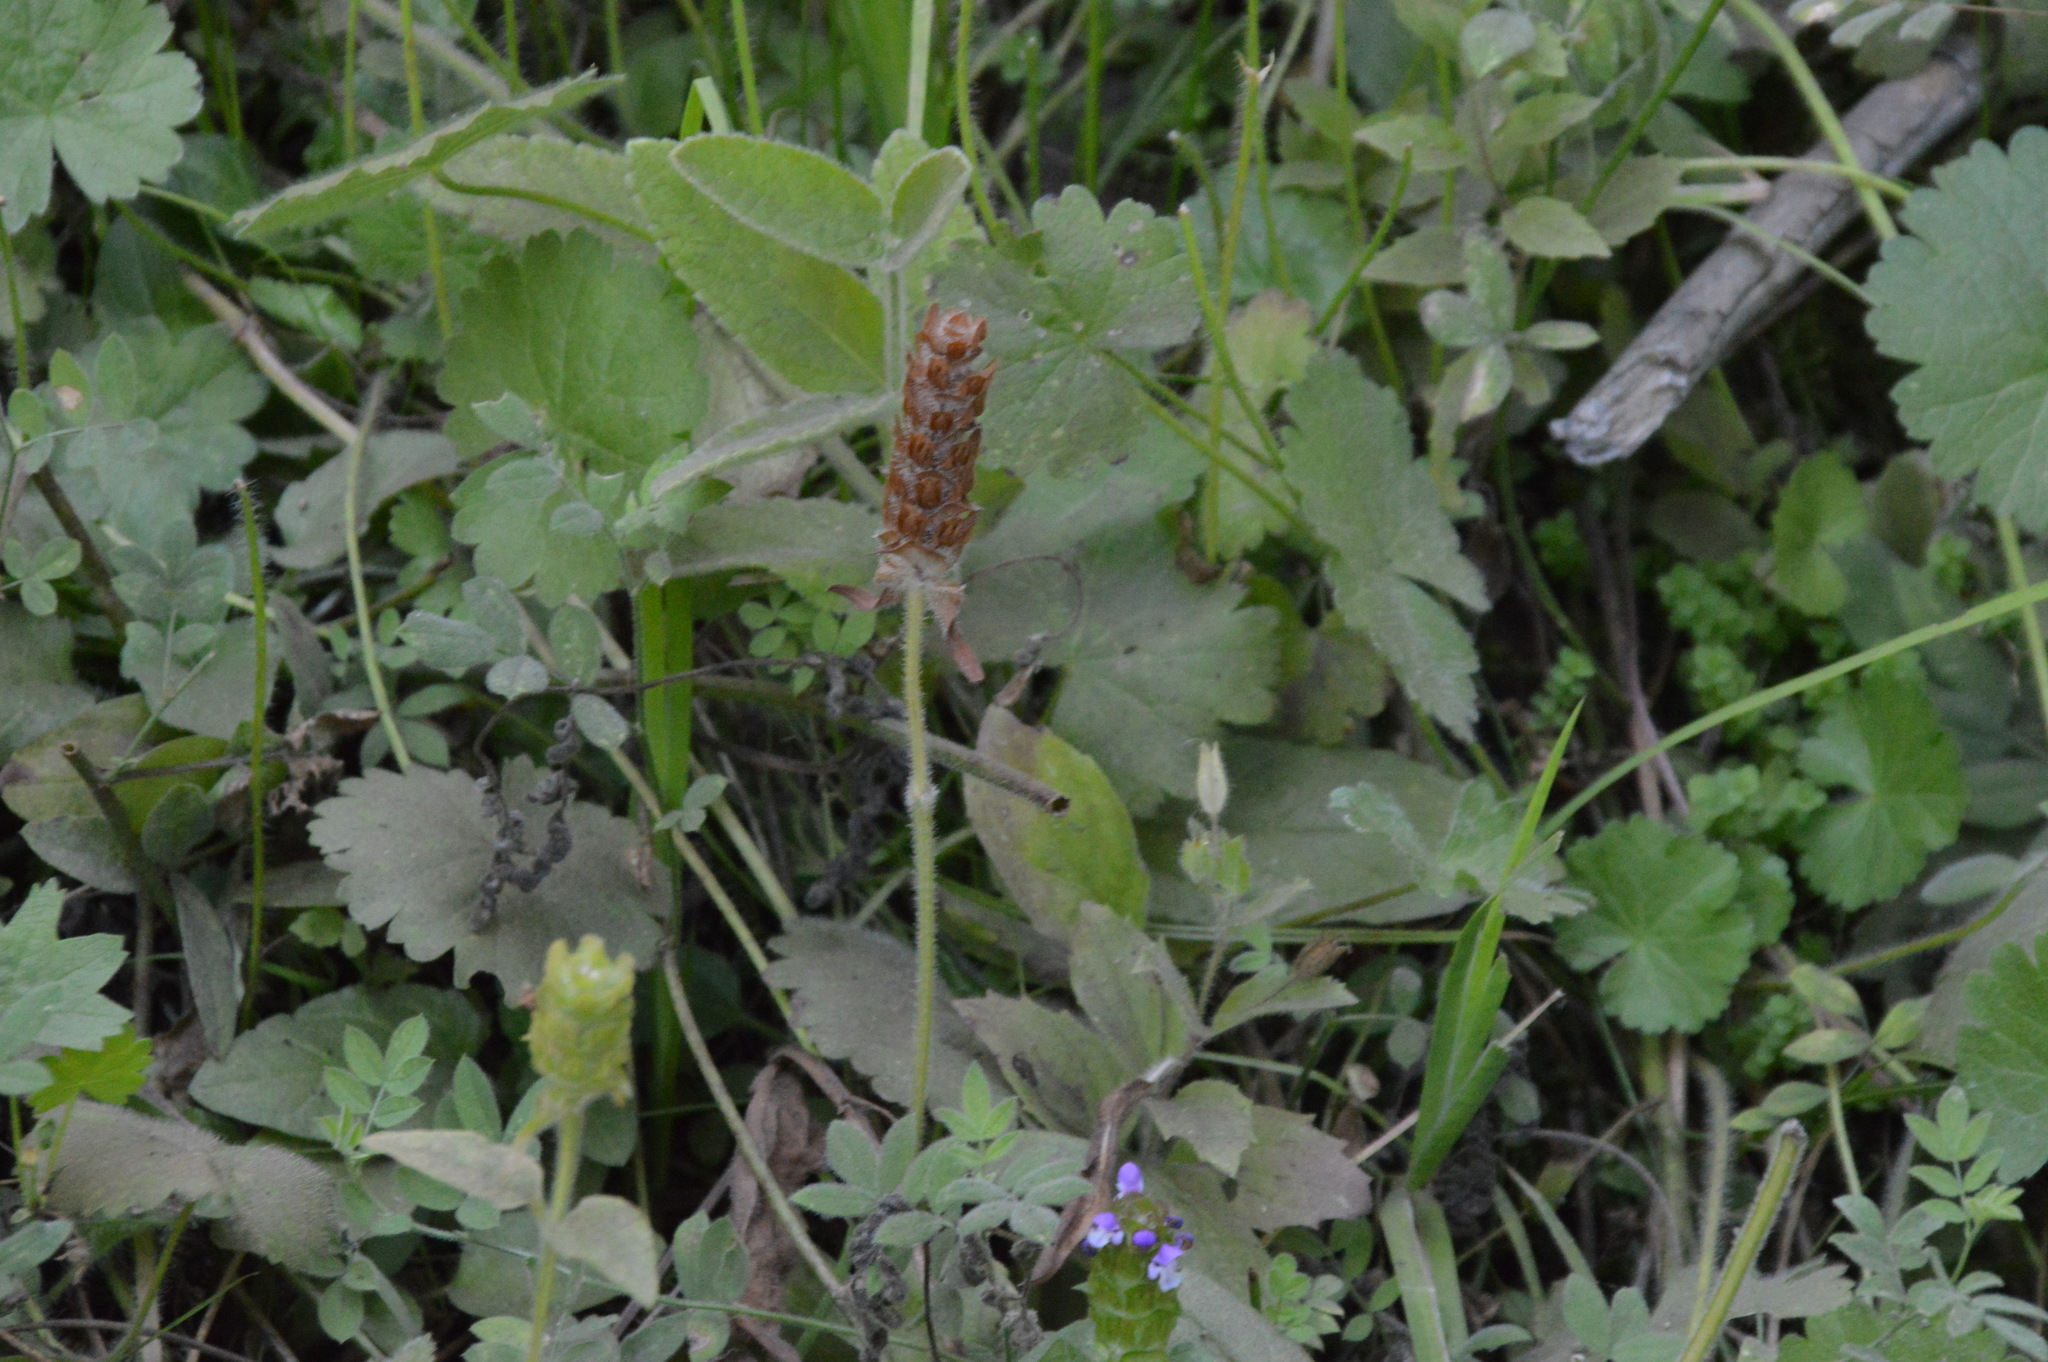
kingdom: Plantae
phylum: Tracheophyta
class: Magnoliopsida
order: Lamiales
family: Lamiaceae
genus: Prunella
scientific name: Prunella vulgaris
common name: Heal-all
